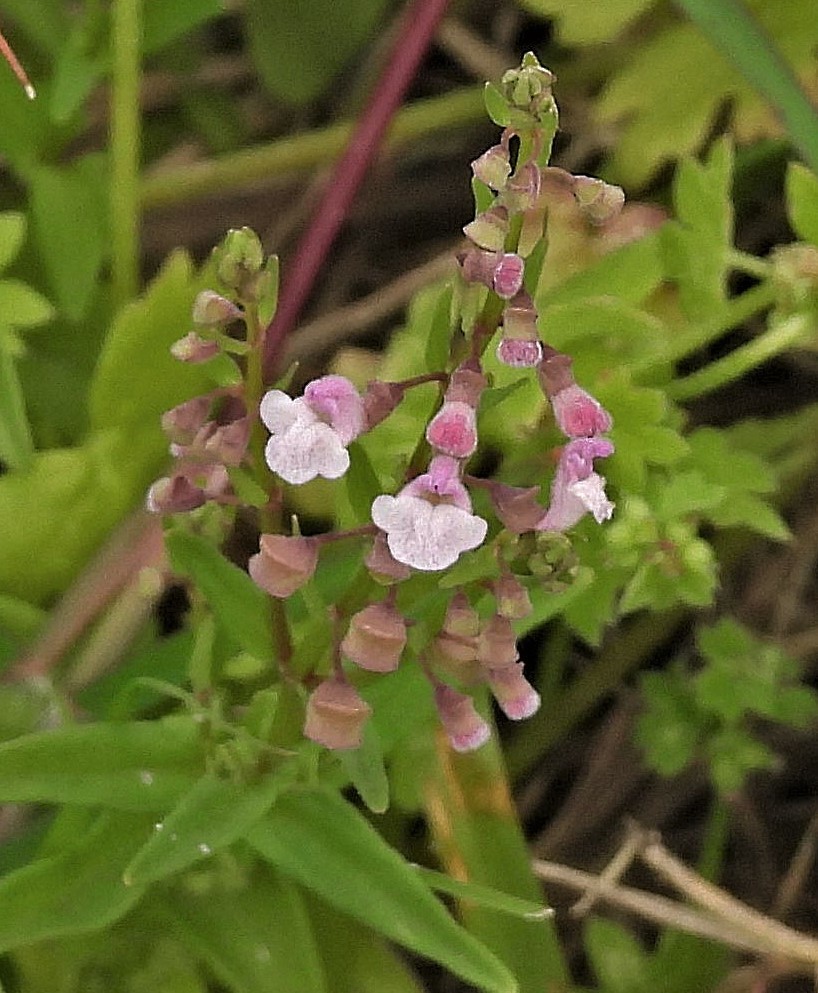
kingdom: Plantae
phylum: Tracheophyta
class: Magnoliopsida
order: Lamiales
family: Lamiaceae
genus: Scutellaria
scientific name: Scutellaria racemosa
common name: South american skullcap
